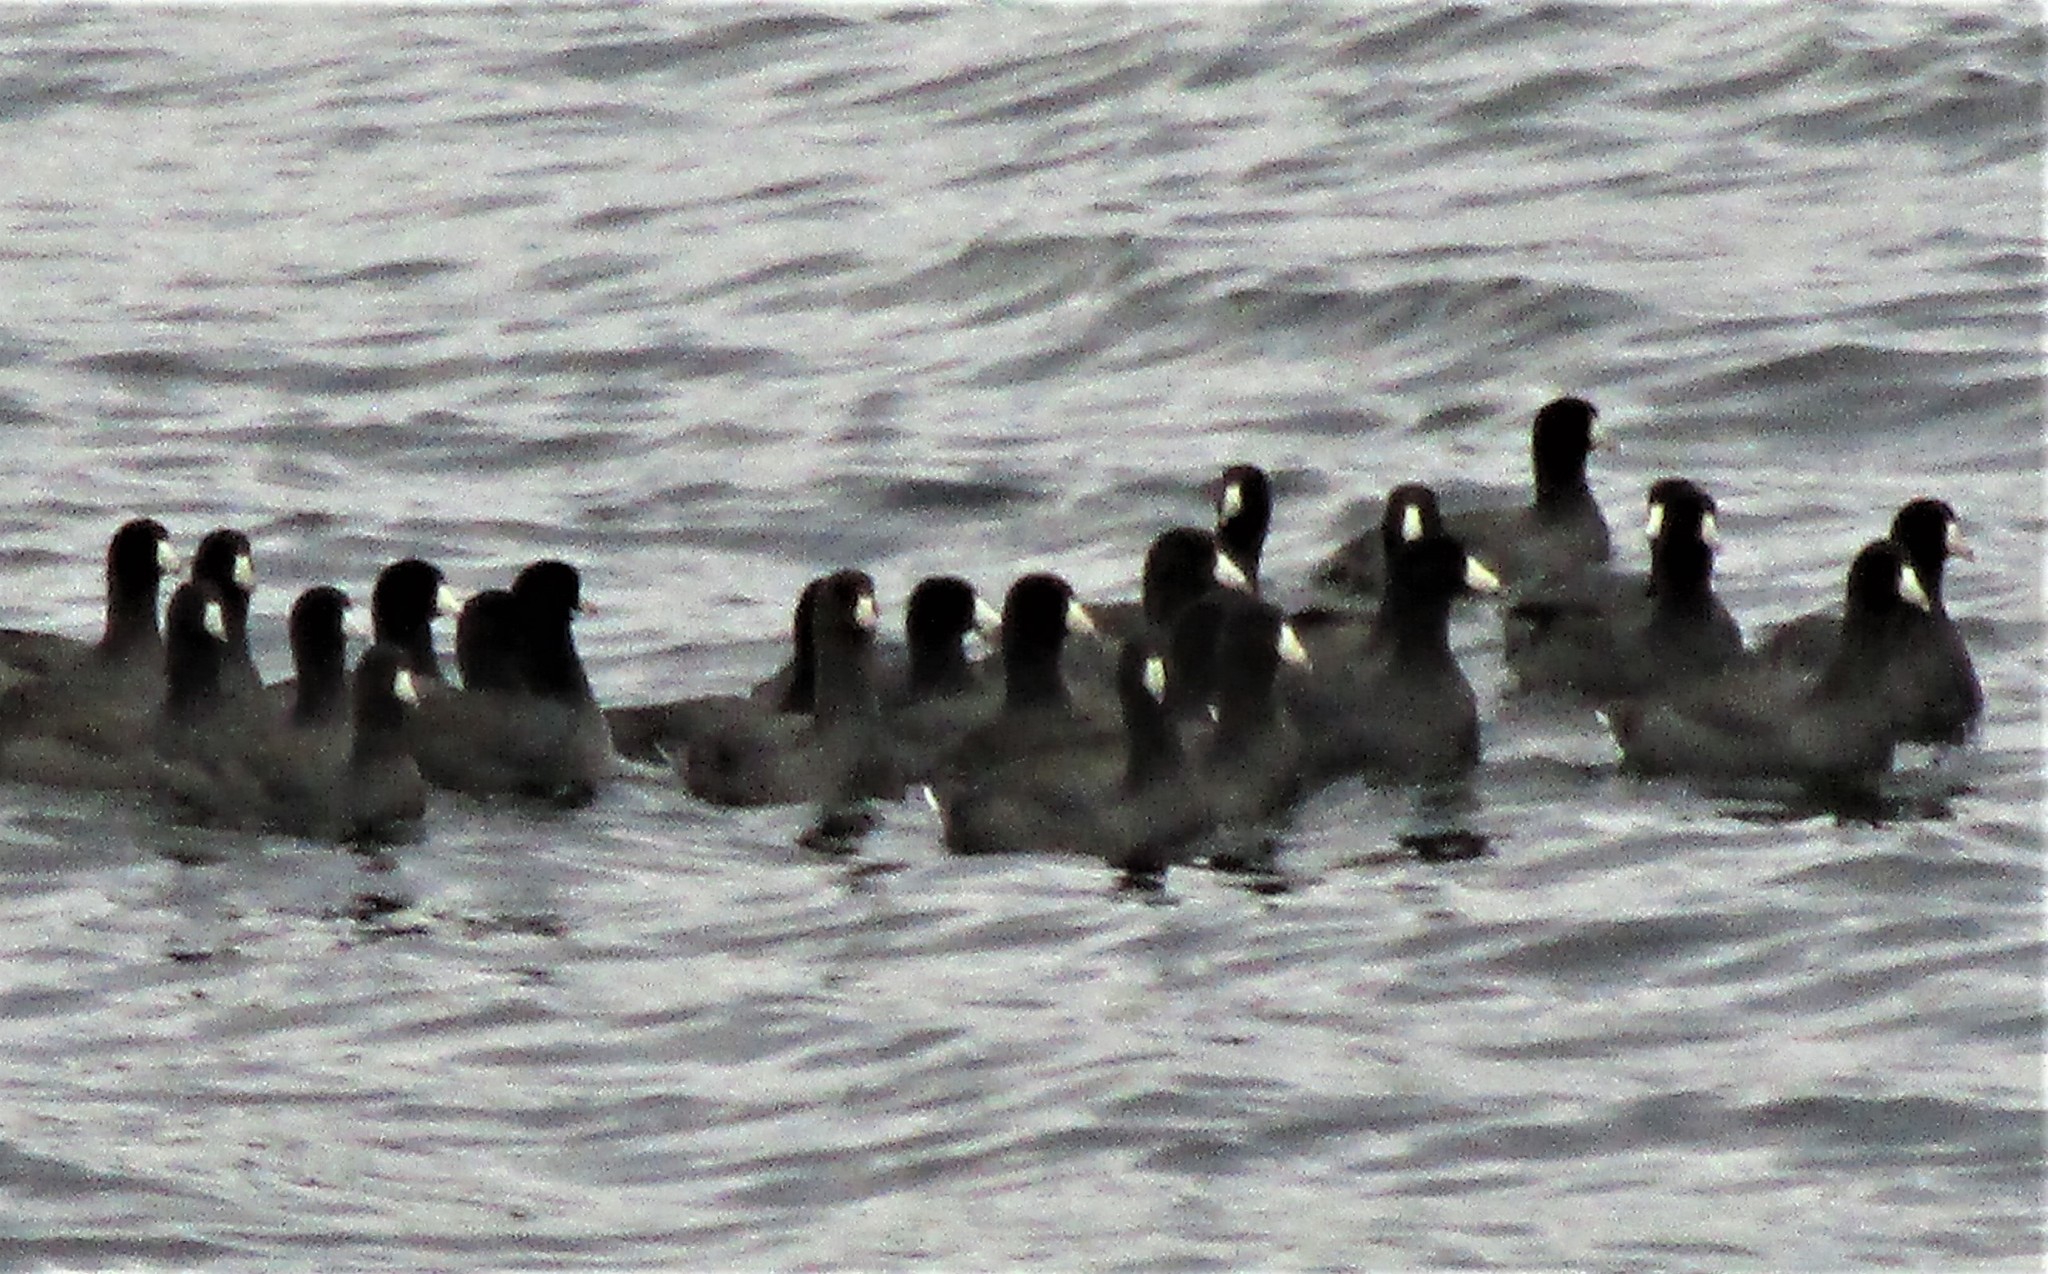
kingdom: Animalia
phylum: Chordata
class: Aves
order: Gruiformes
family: Rallidae
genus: Fulica
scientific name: Fulica americana
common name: American coot
